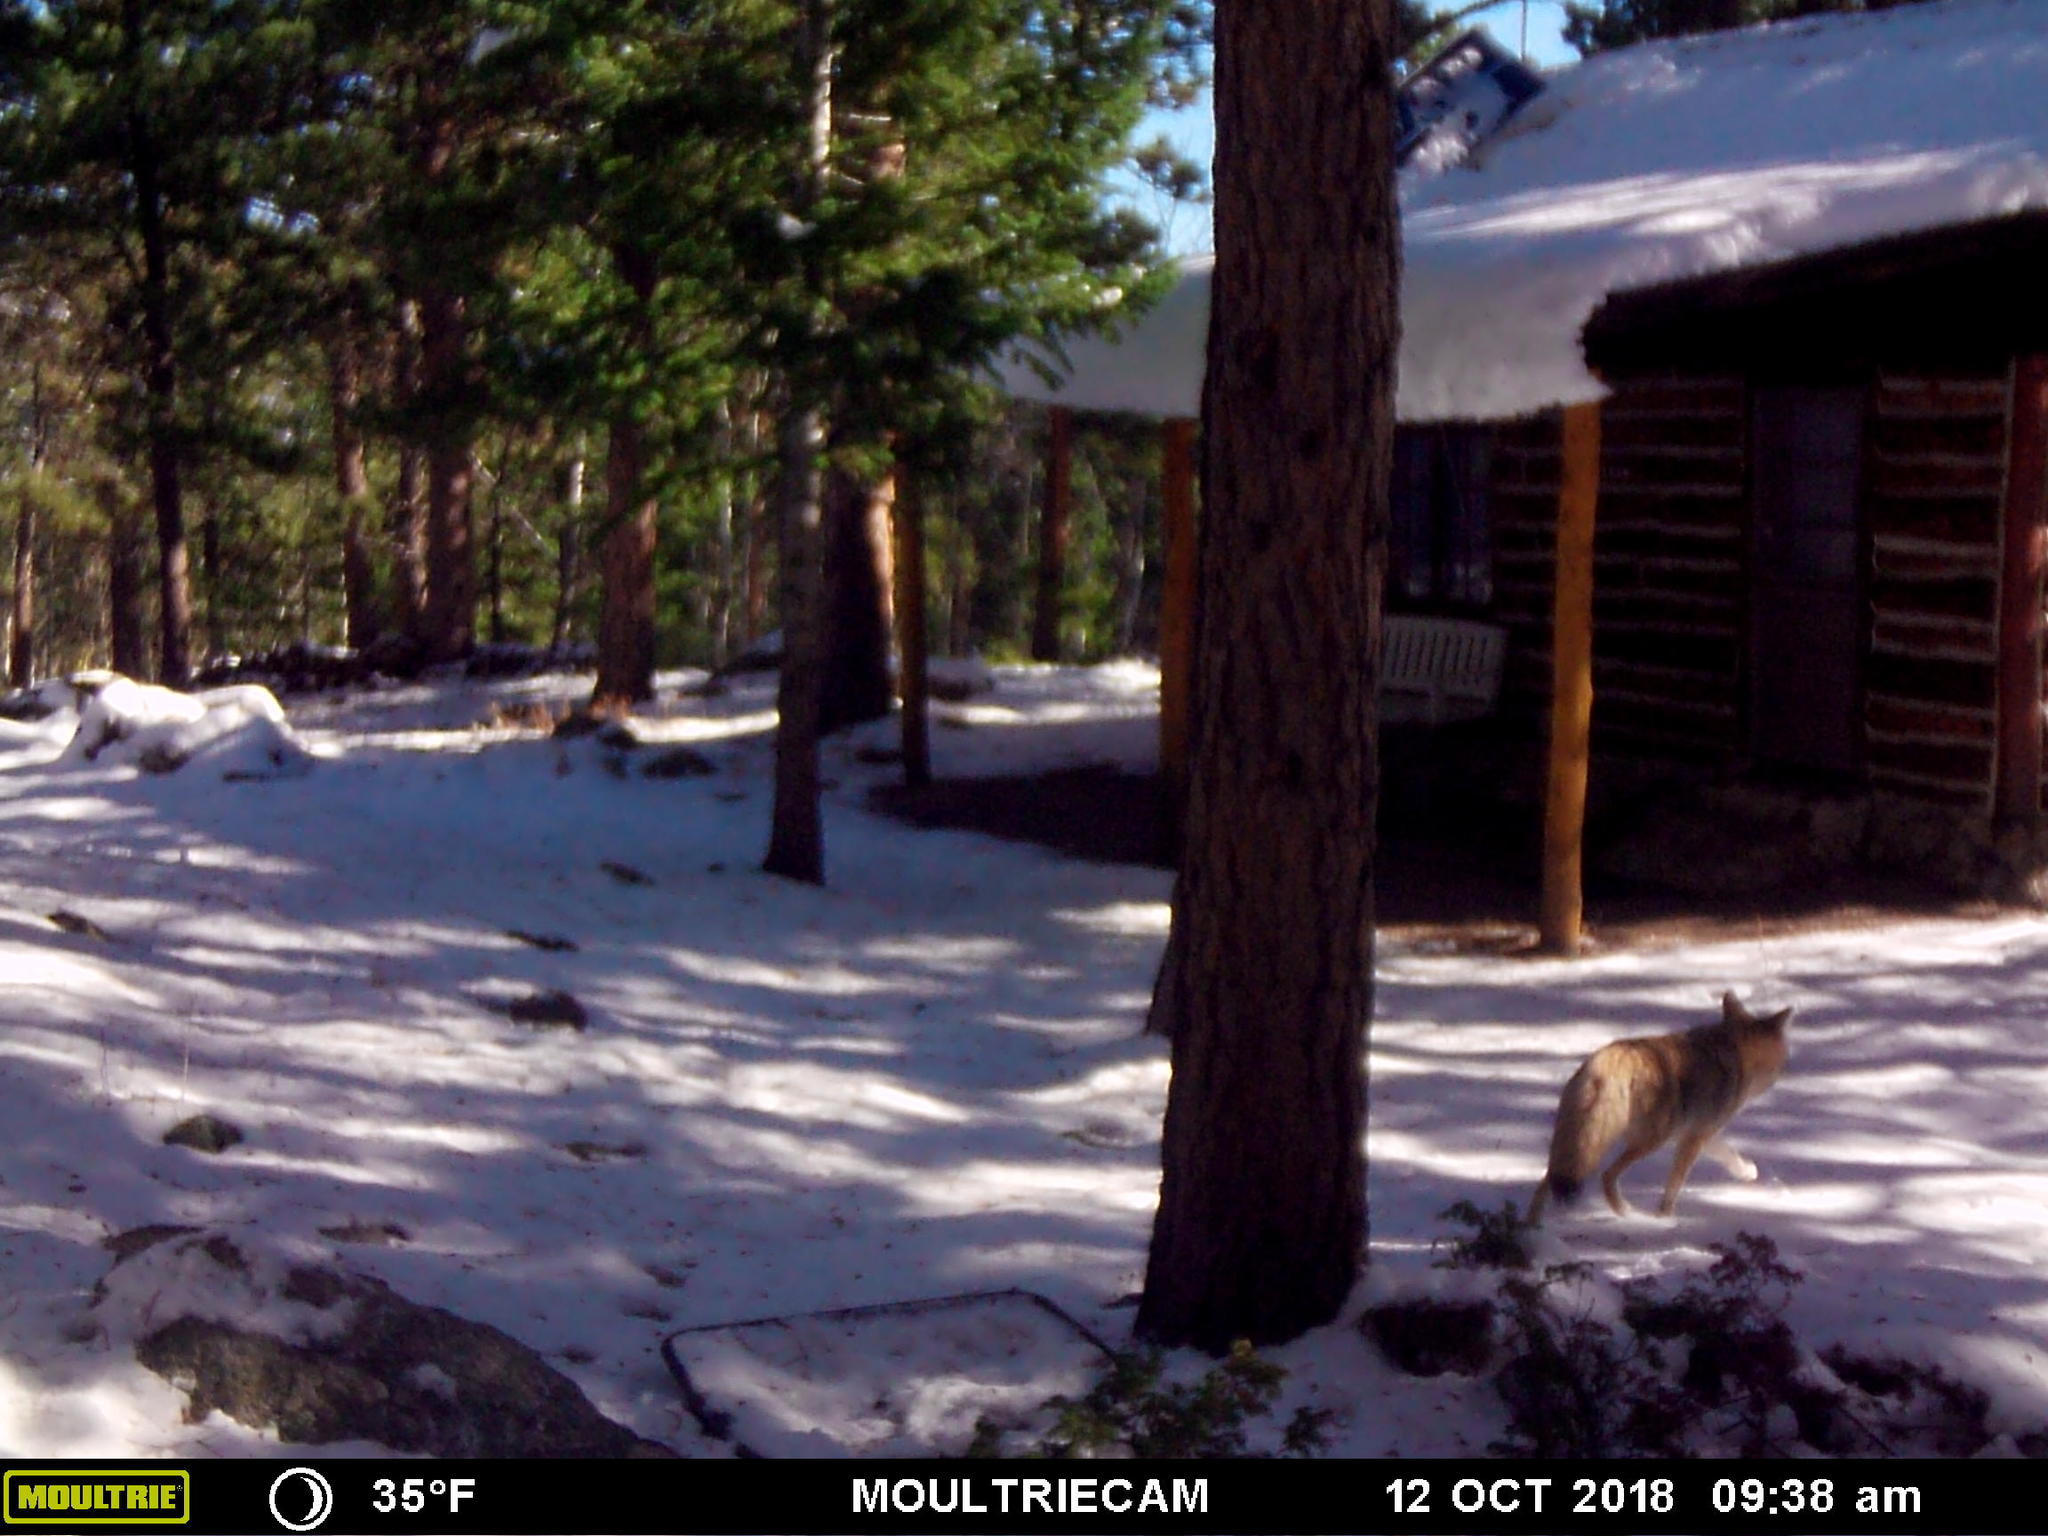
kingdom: Animalia
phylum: Chordata
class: Mammalia
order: Carnivora
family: Canidae
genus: Canis
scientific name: Canis latrans
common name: Coyote
